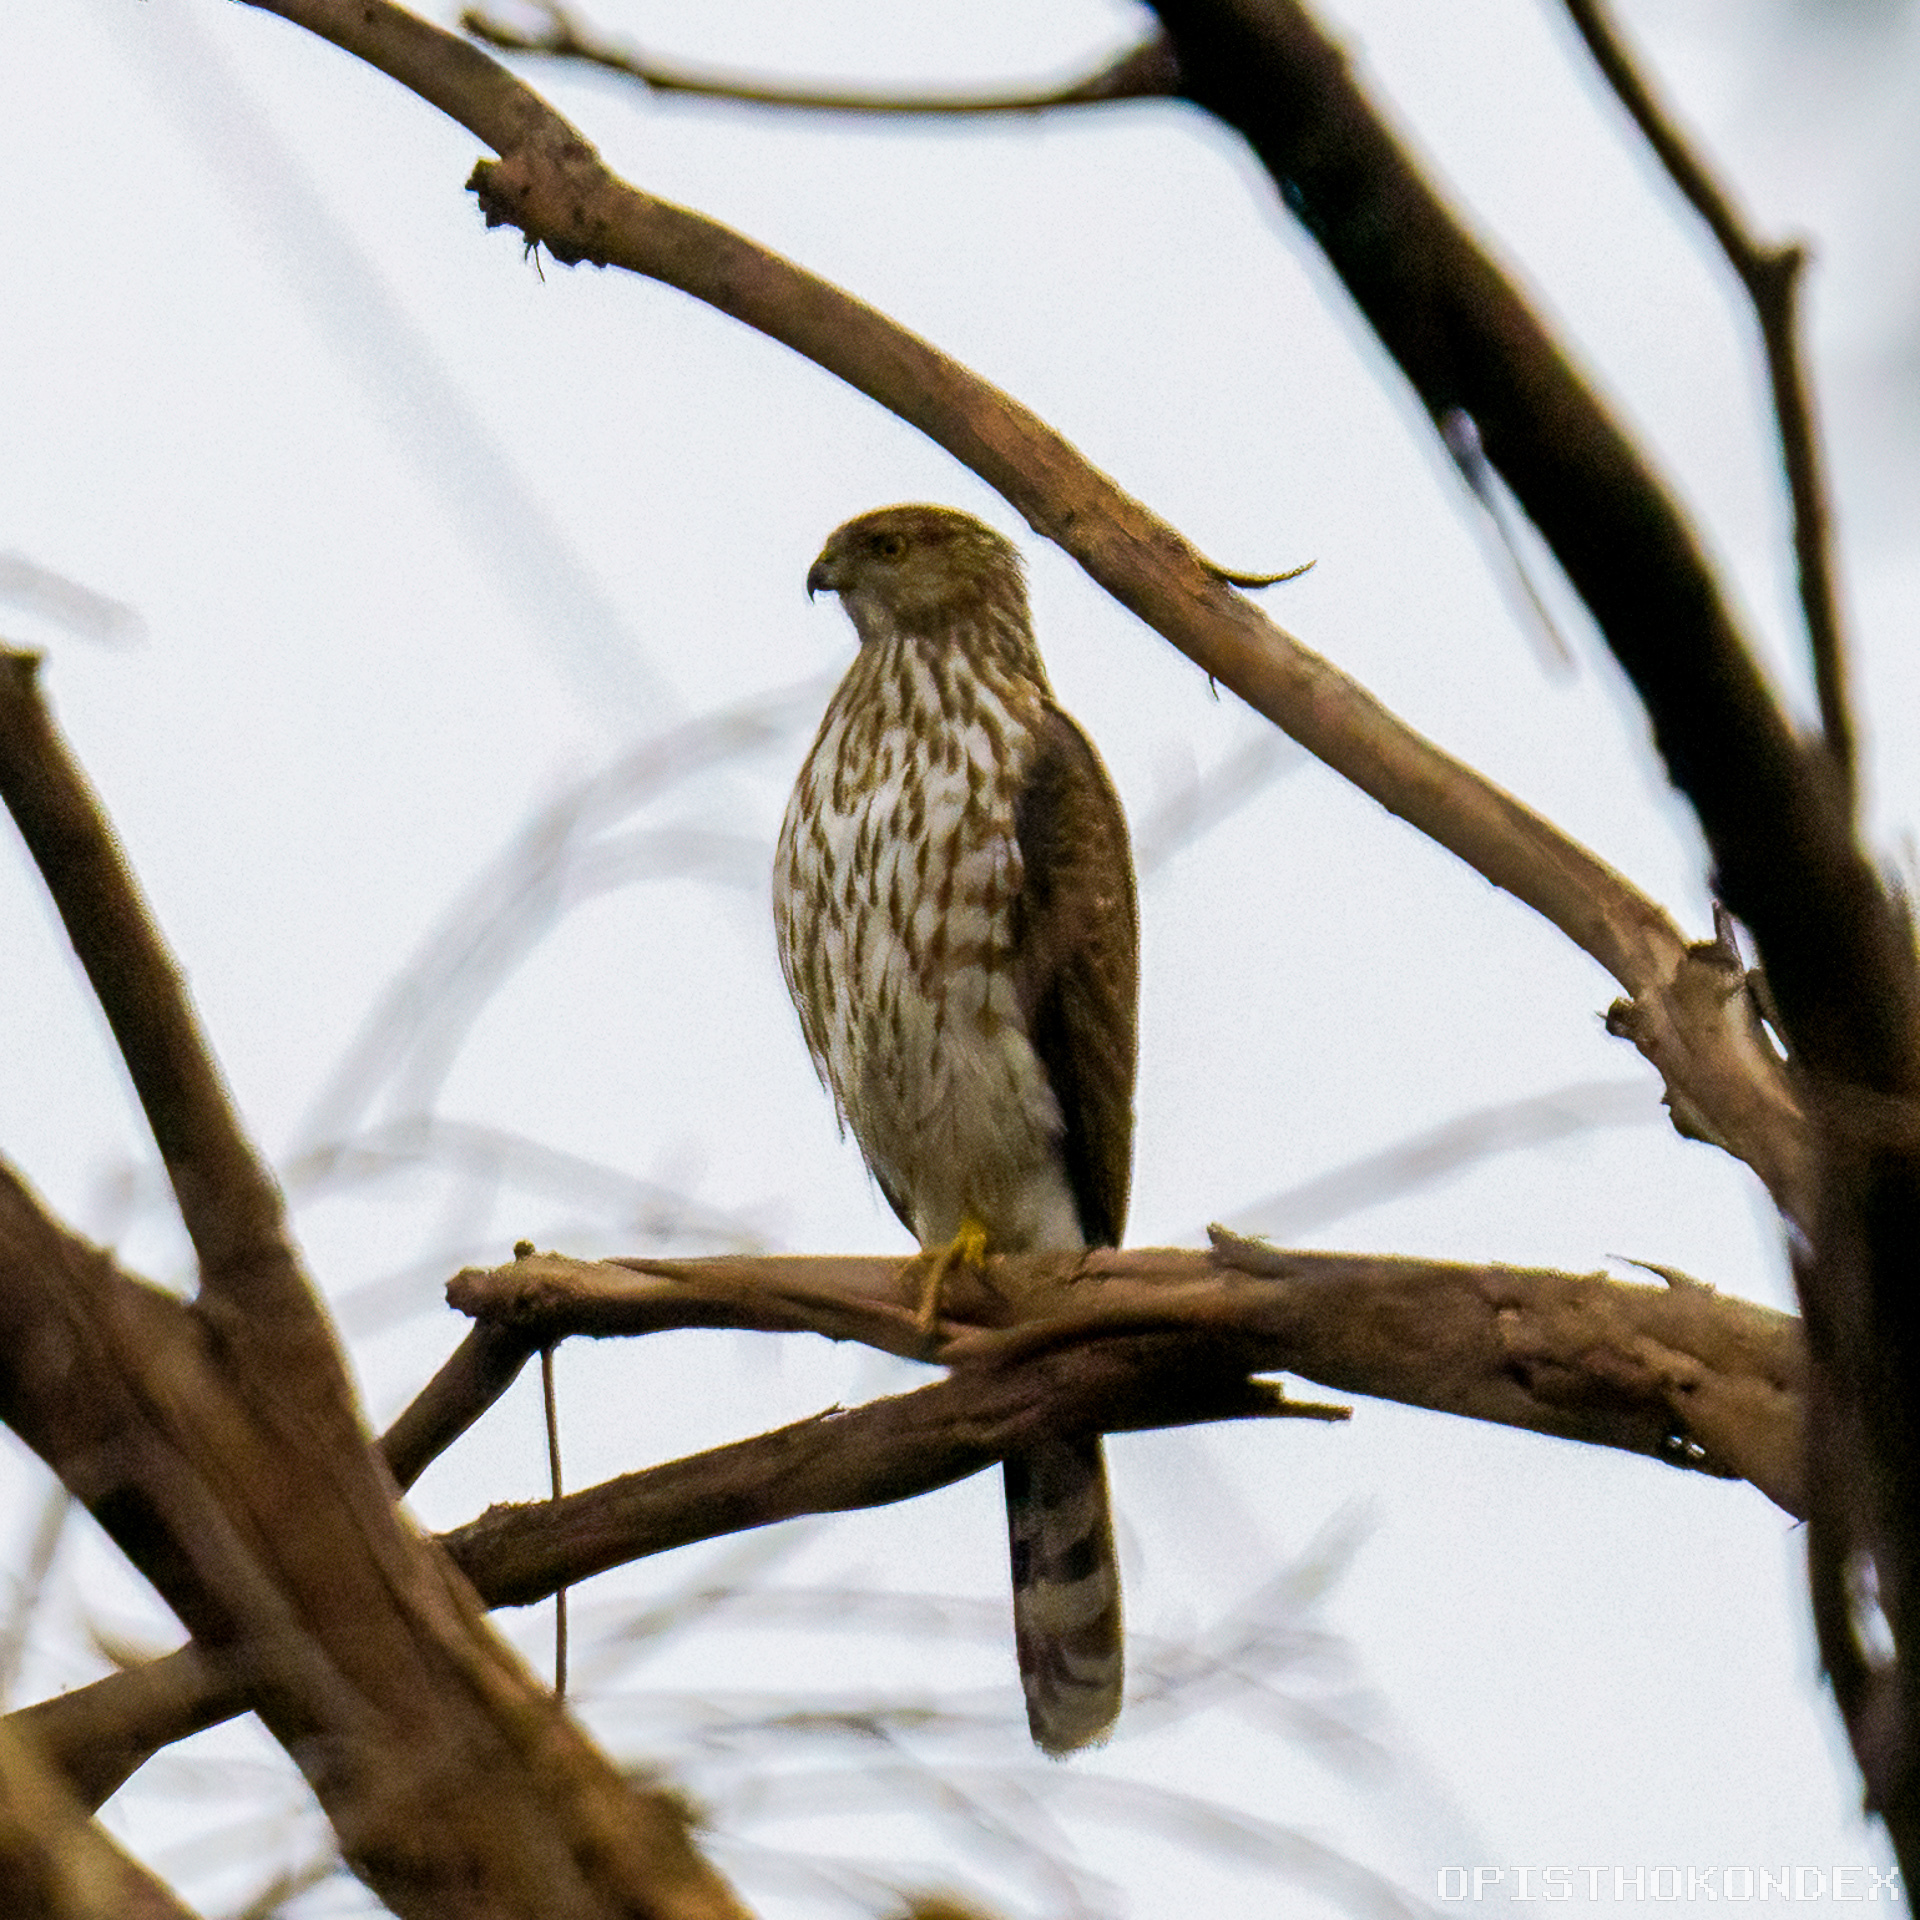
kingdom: Animalia
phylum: Chordata
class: Aves
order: Accipitriformes
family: Accipitridae
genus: Accipiter
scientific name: Accipiter cooperii
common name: Cooper's hawk
